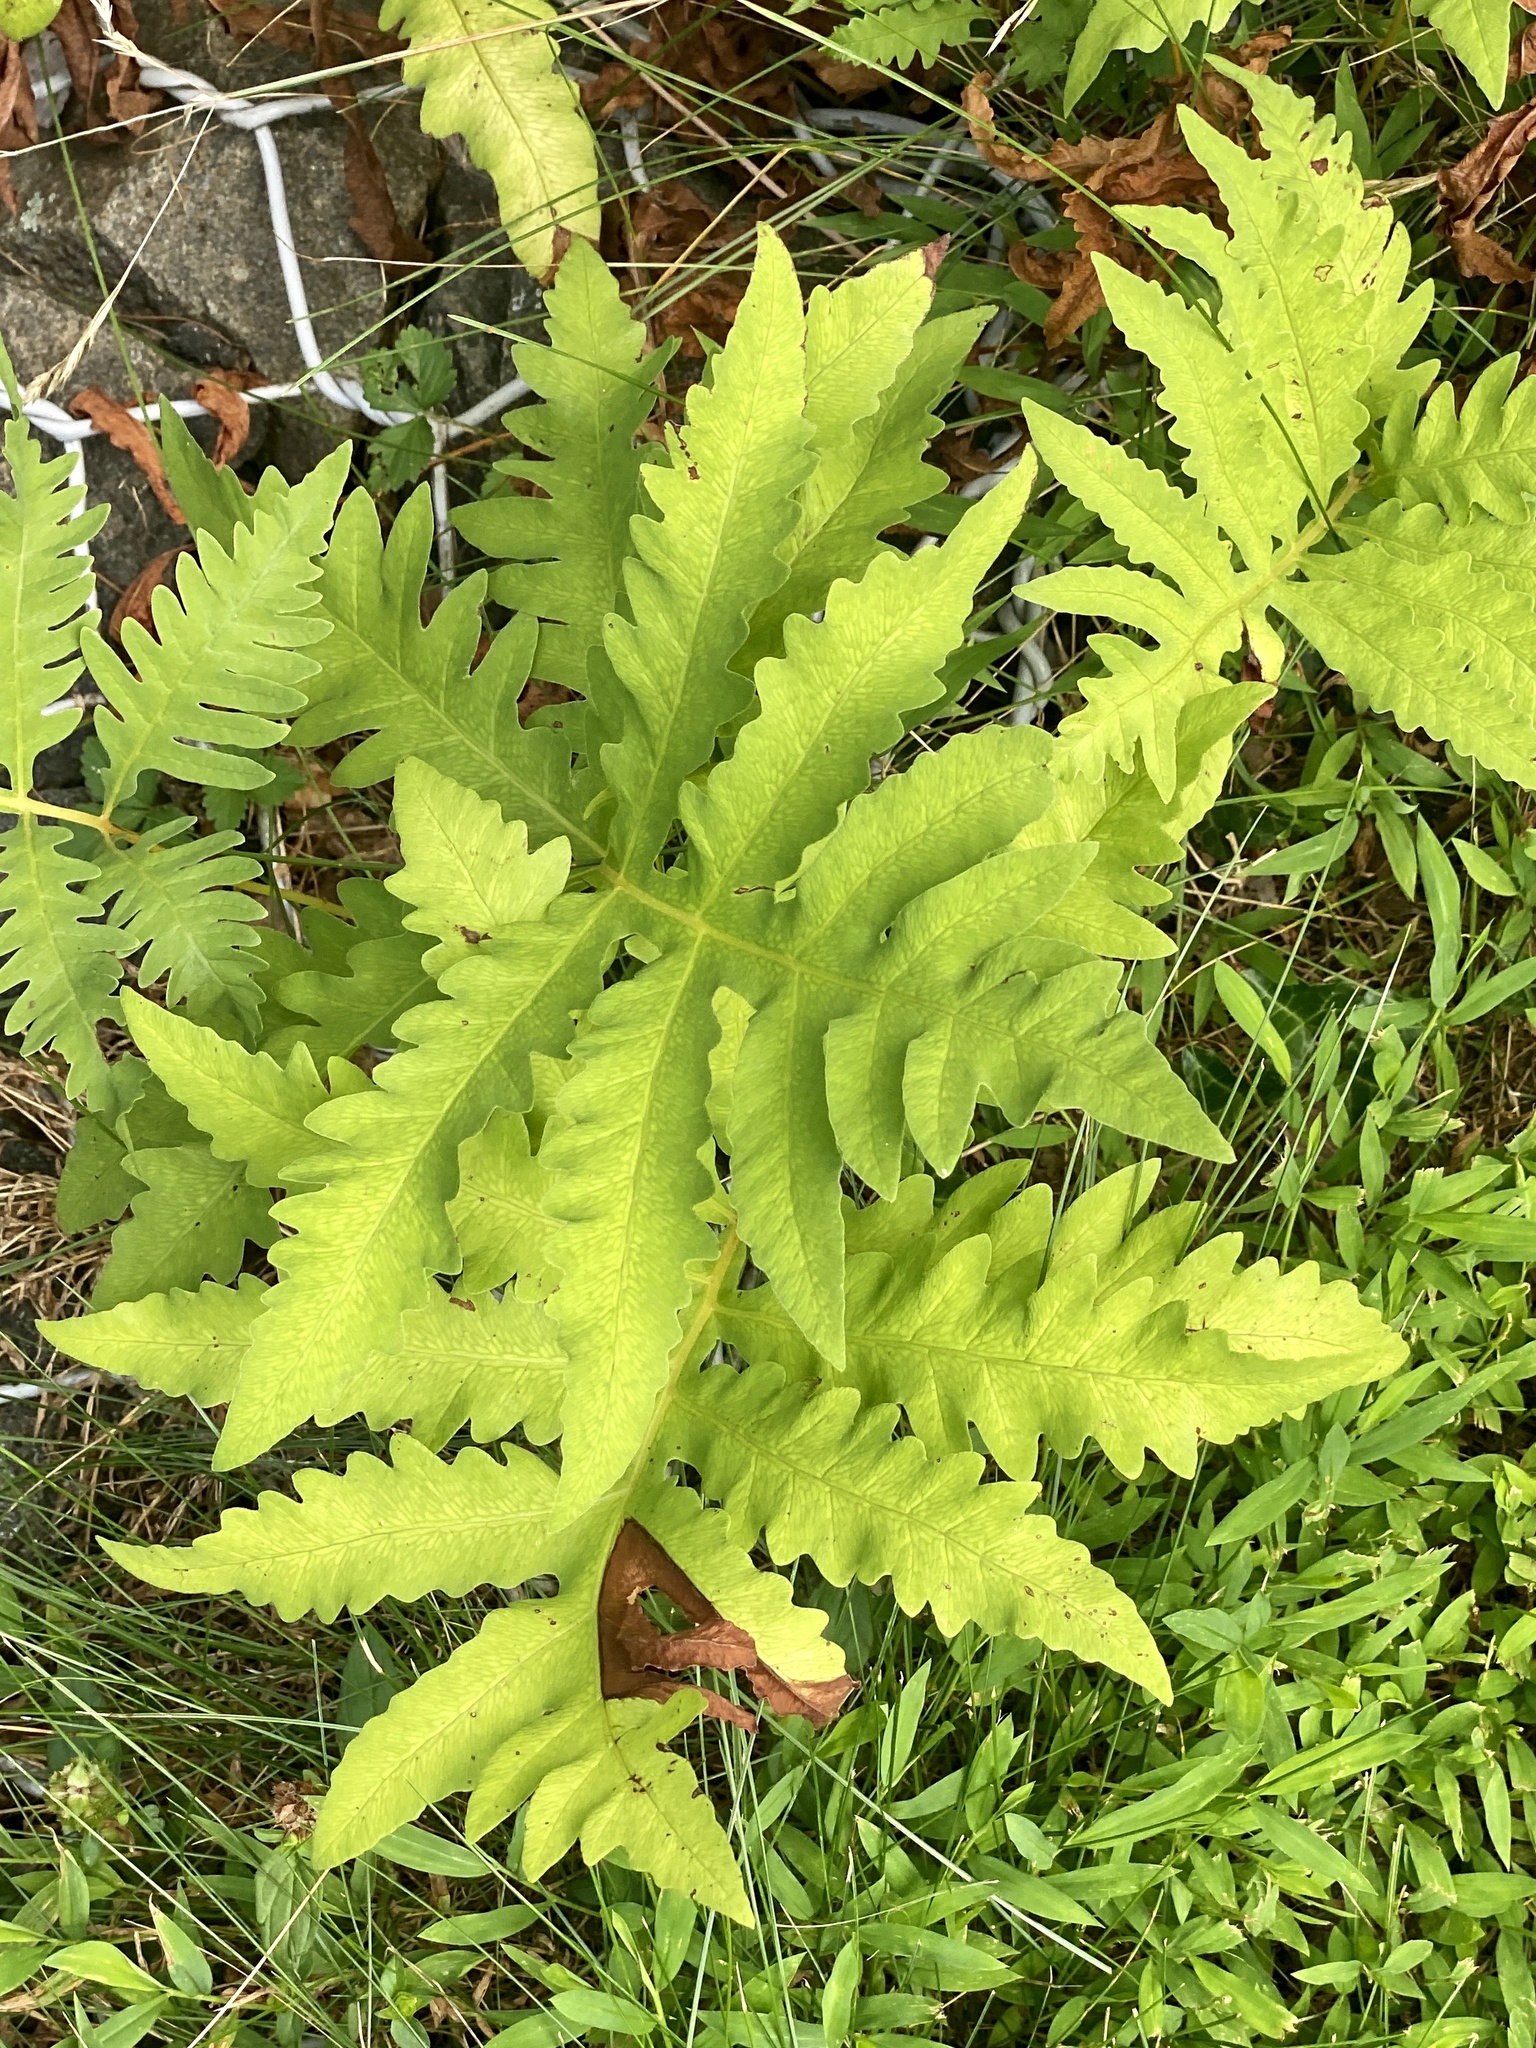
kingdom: Plantae
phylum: Tracheophyta
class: Polypodiopsida
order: Polypodiales
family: Onocleaceae
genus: Onoclea
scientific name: Onoclea sensibilis
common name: Sensitive fern
